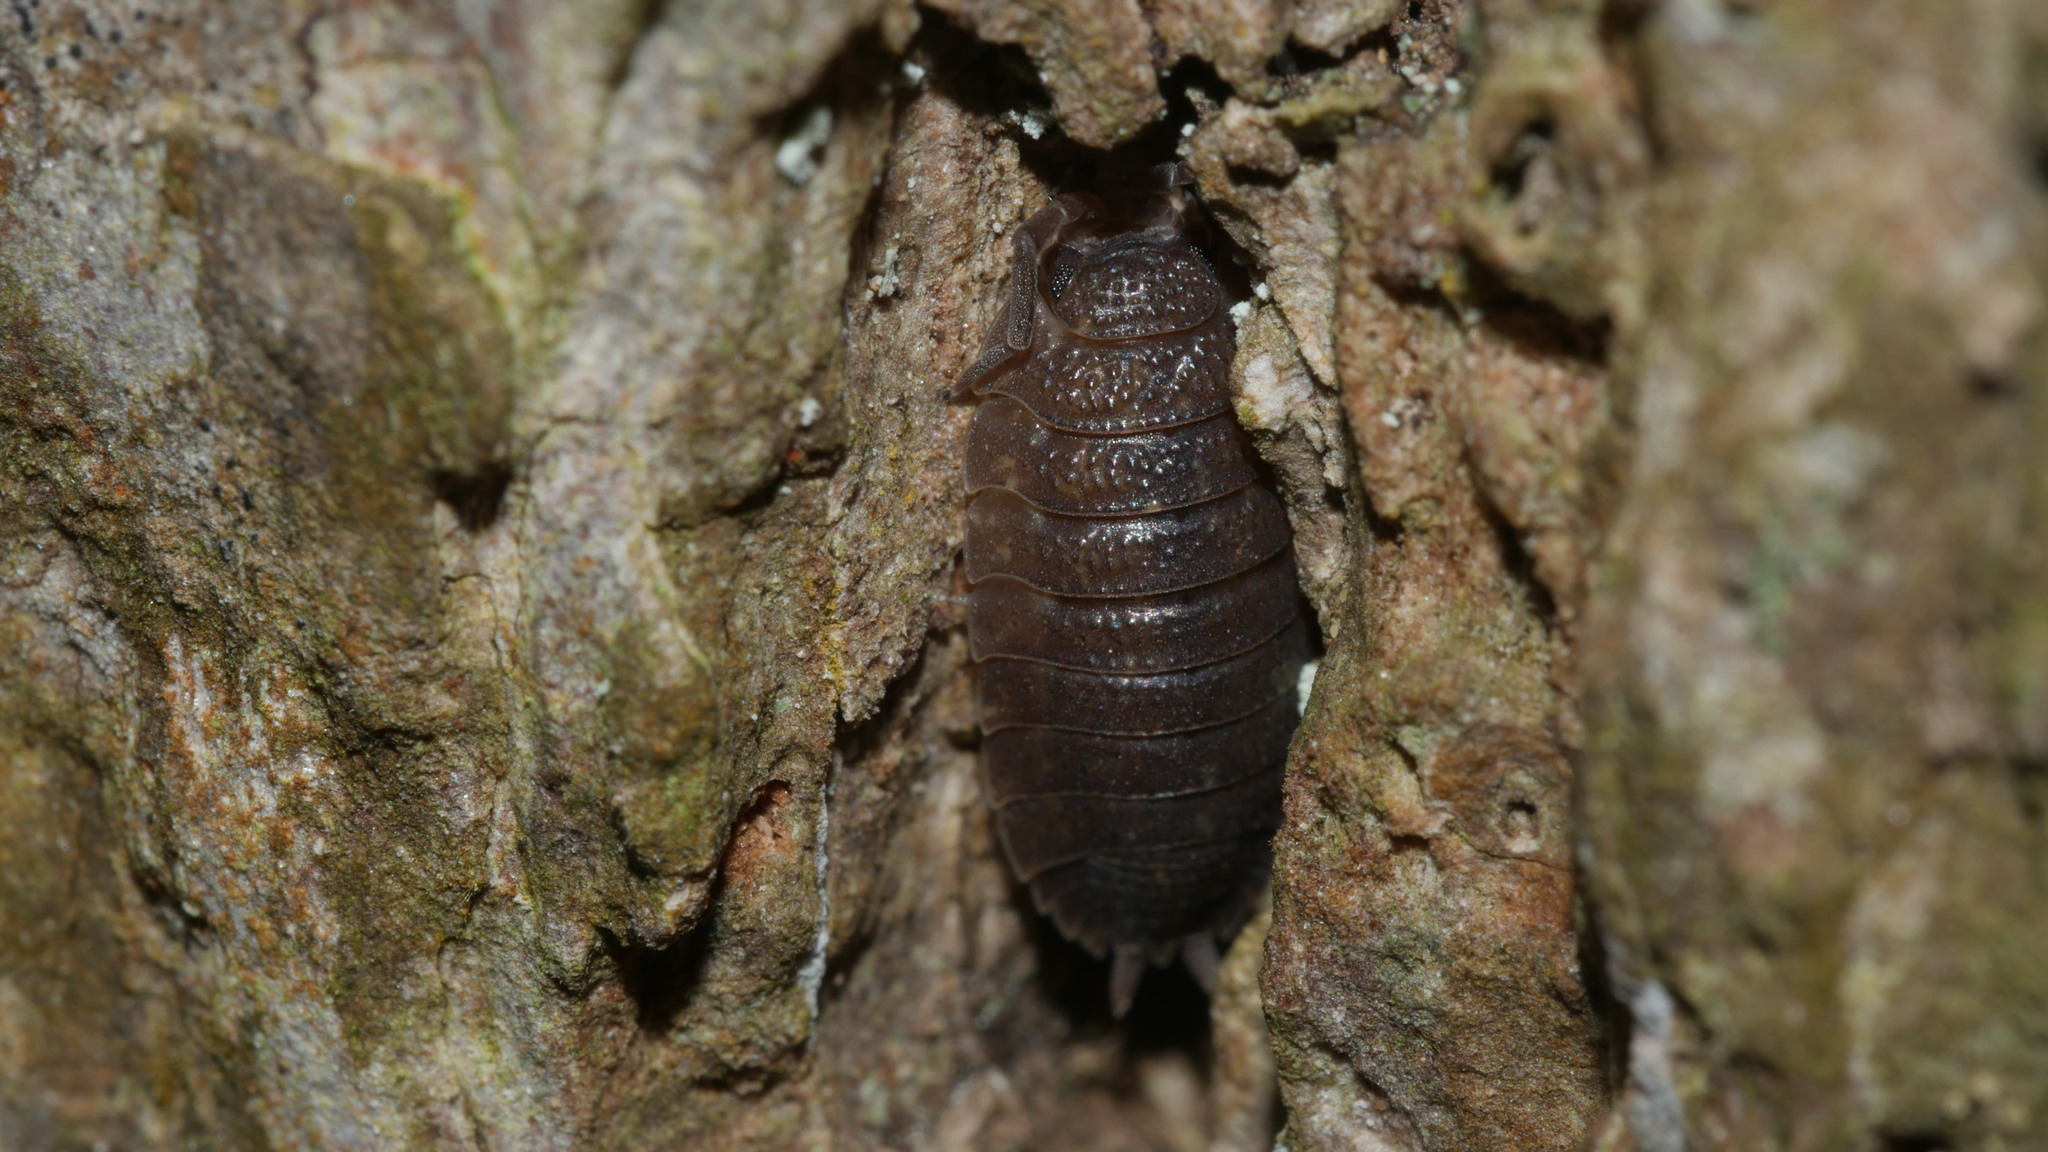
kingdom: Animalia
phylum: Arthropoda
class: Malacostraca
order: Isopoda
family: Porcellionidae
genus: Porcellio
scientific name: Porcellio scaber
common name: Common rough woodlouse
